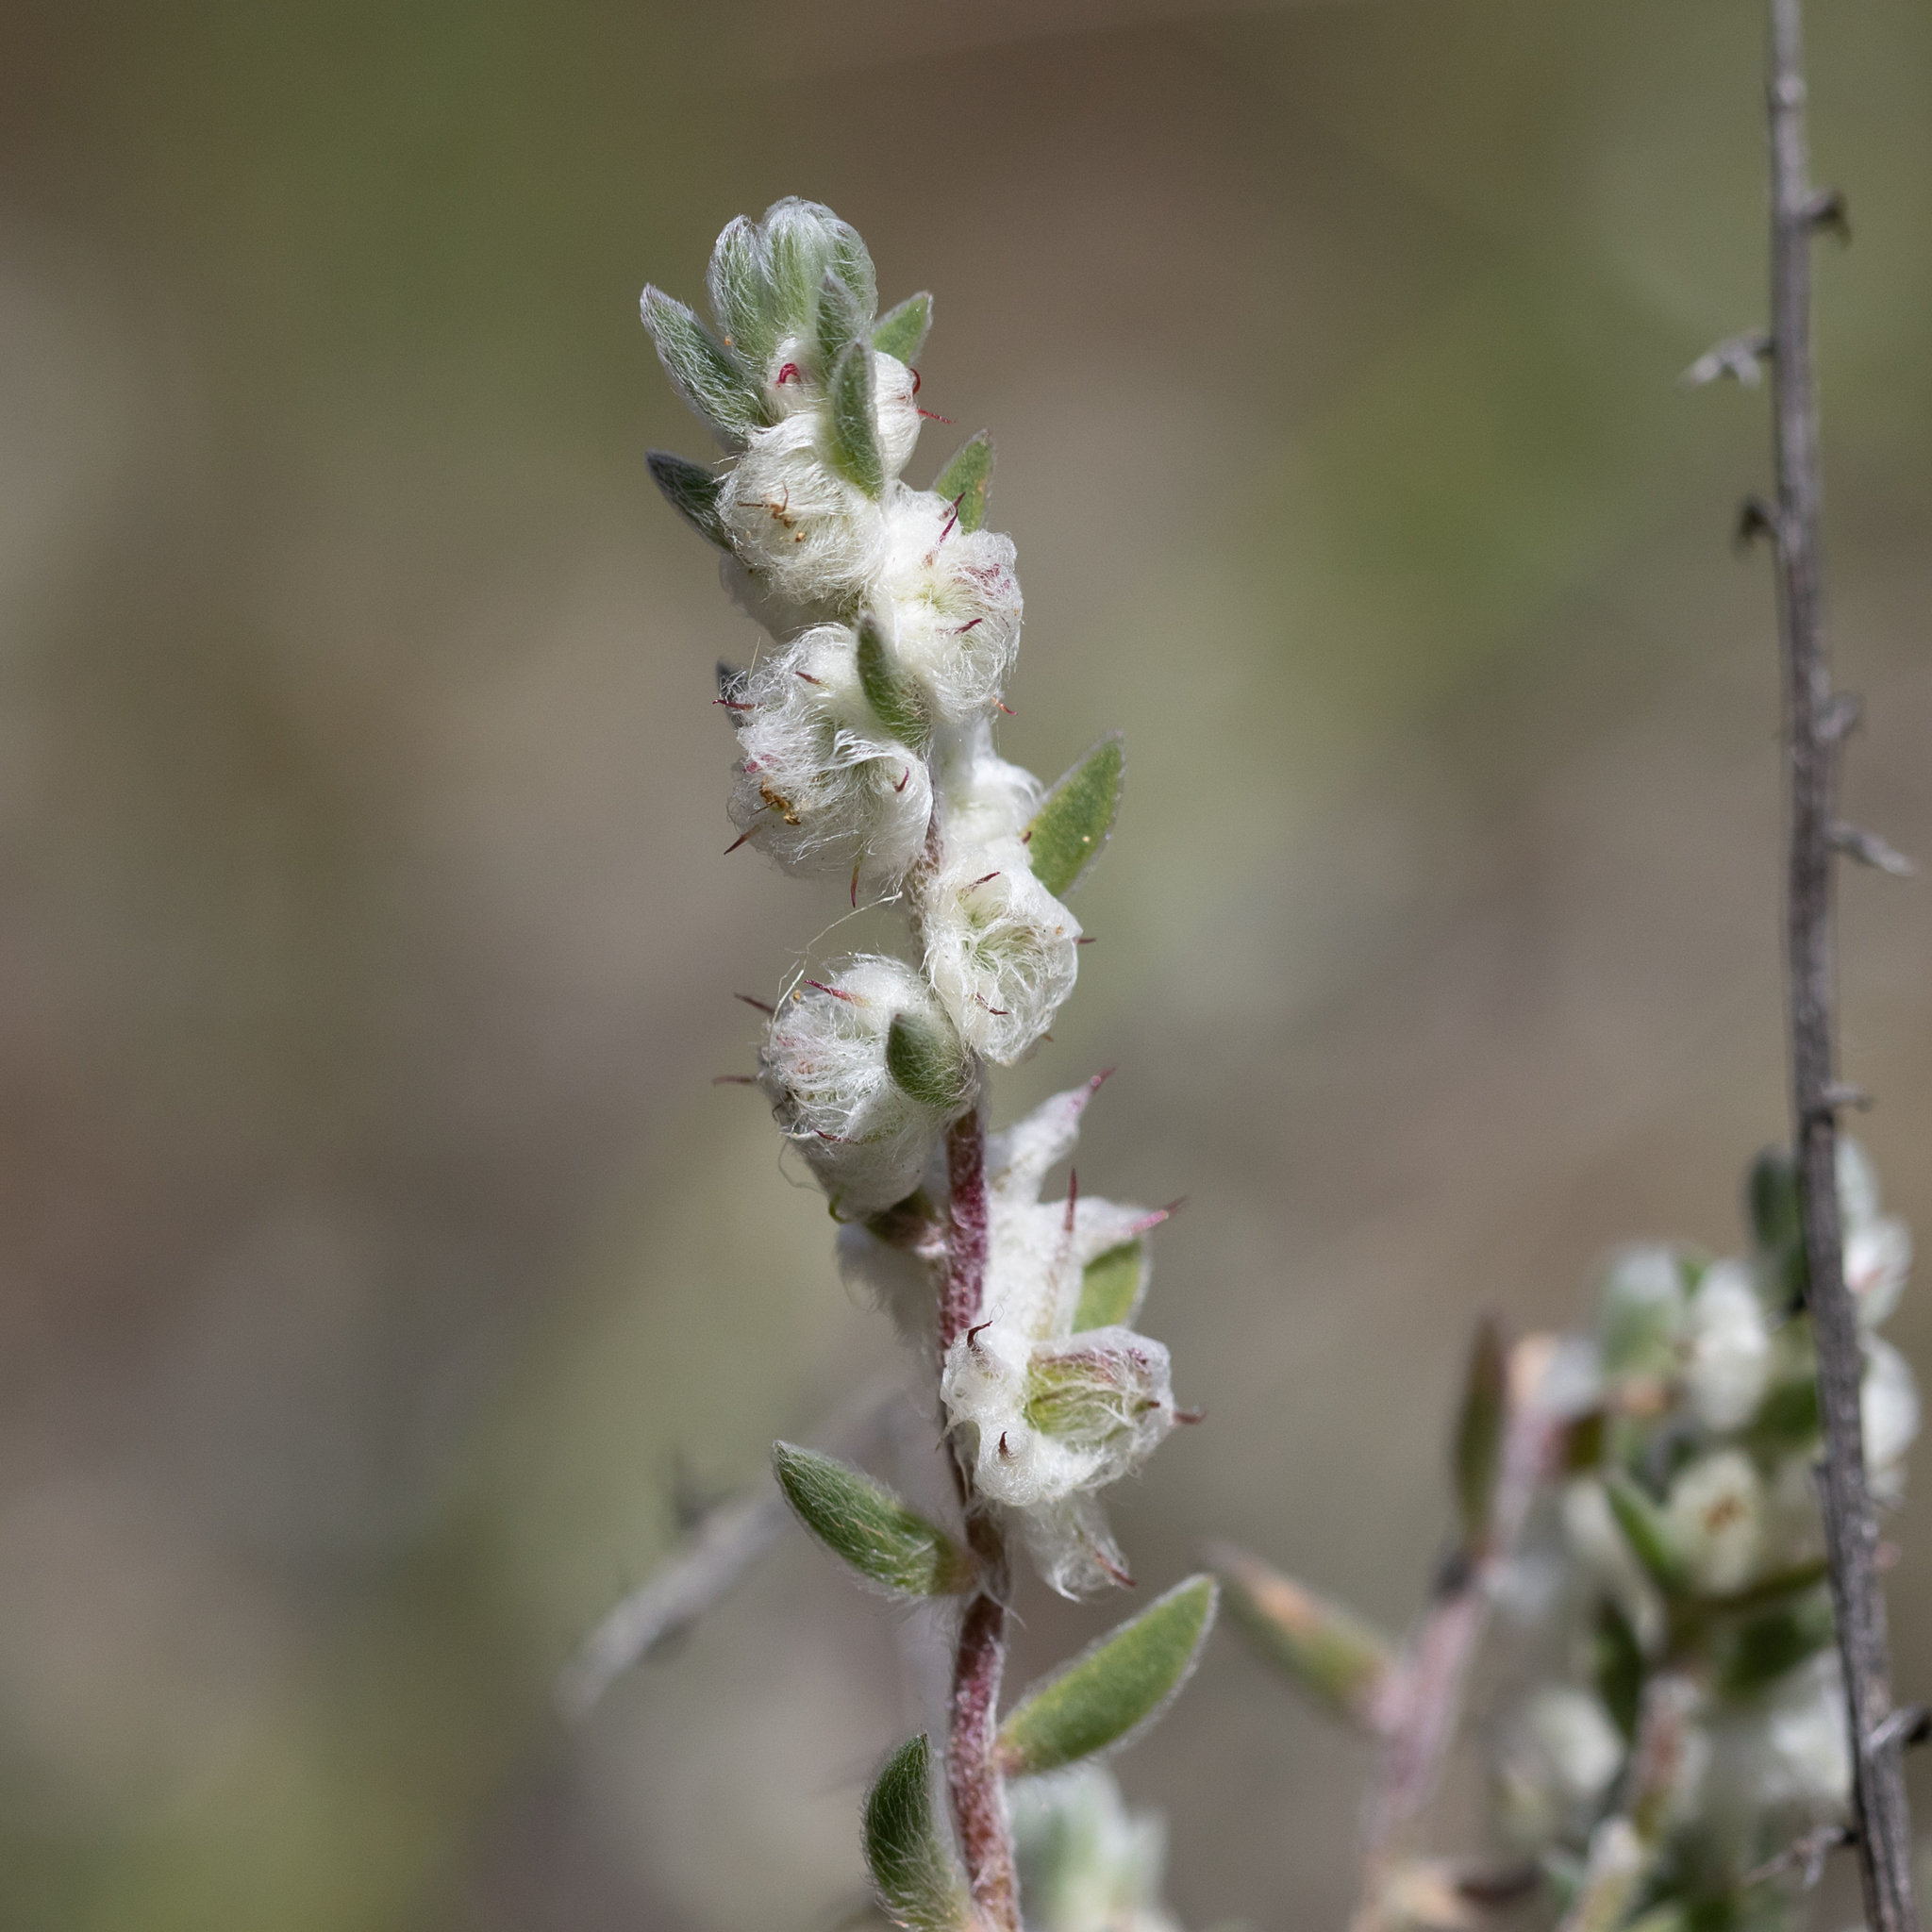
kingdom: Plantae
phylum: Tracheophyta
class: Magnoliopsida
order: Caryophyllales
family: Amaranthaceae
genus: Maireana
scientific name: Maireana sclerolaenoides
